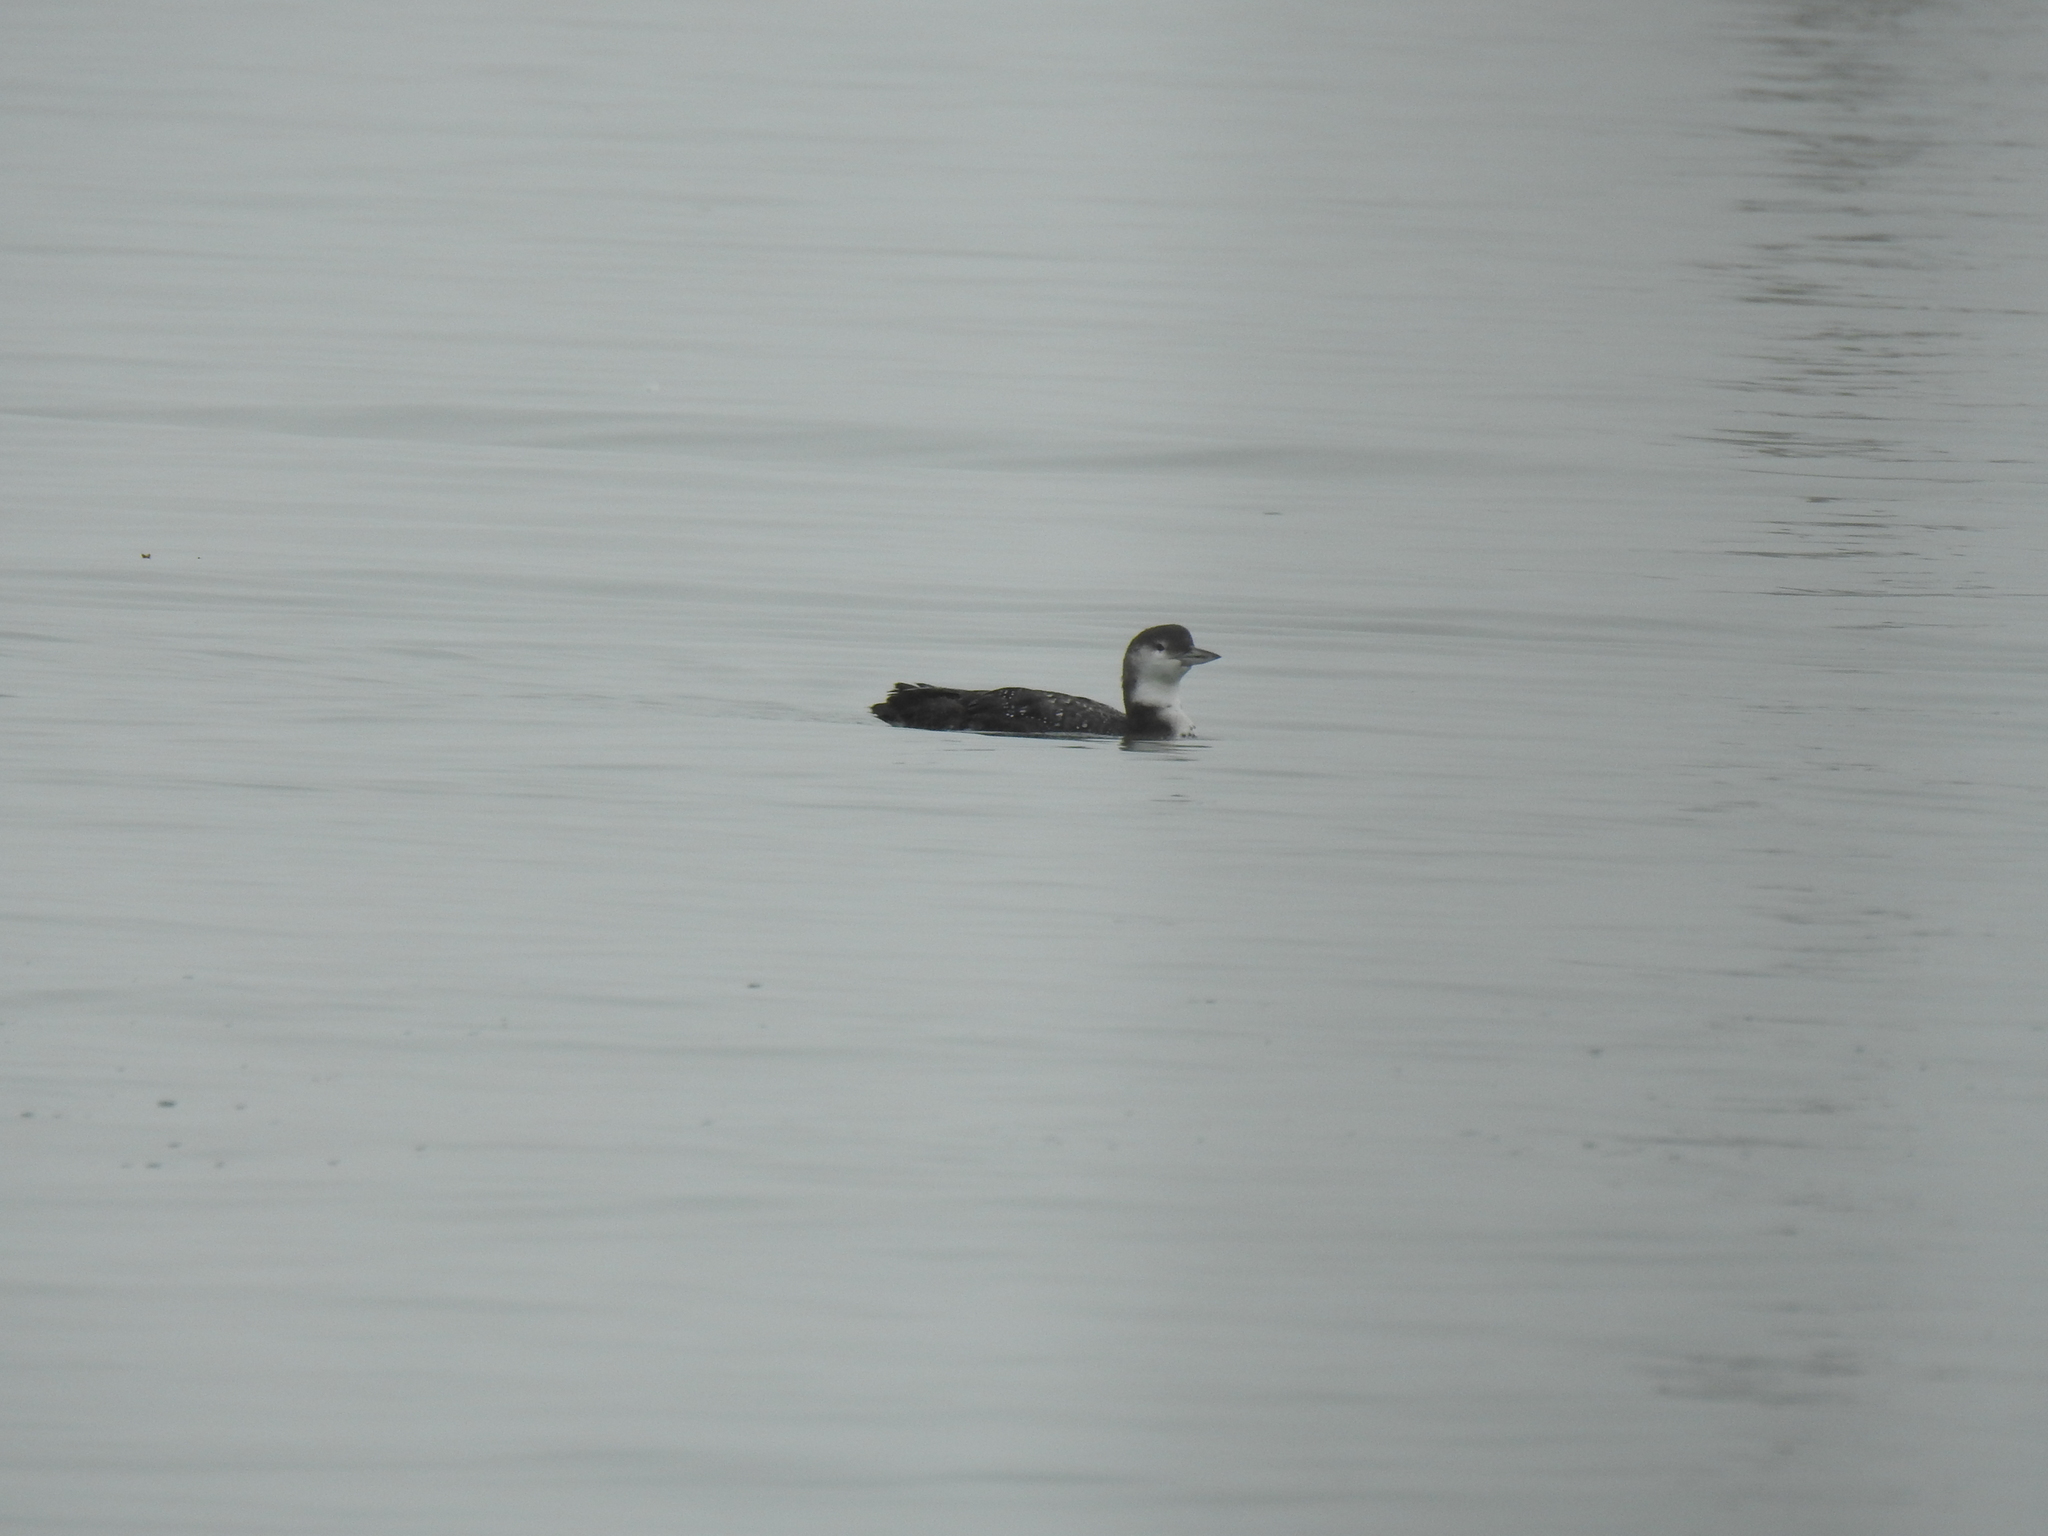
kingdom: Animalia
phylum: Chordata
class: Aves
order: Gaviiformes
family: Gaviidae
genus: Gavia
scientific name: Gavia immer
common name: Common loon
